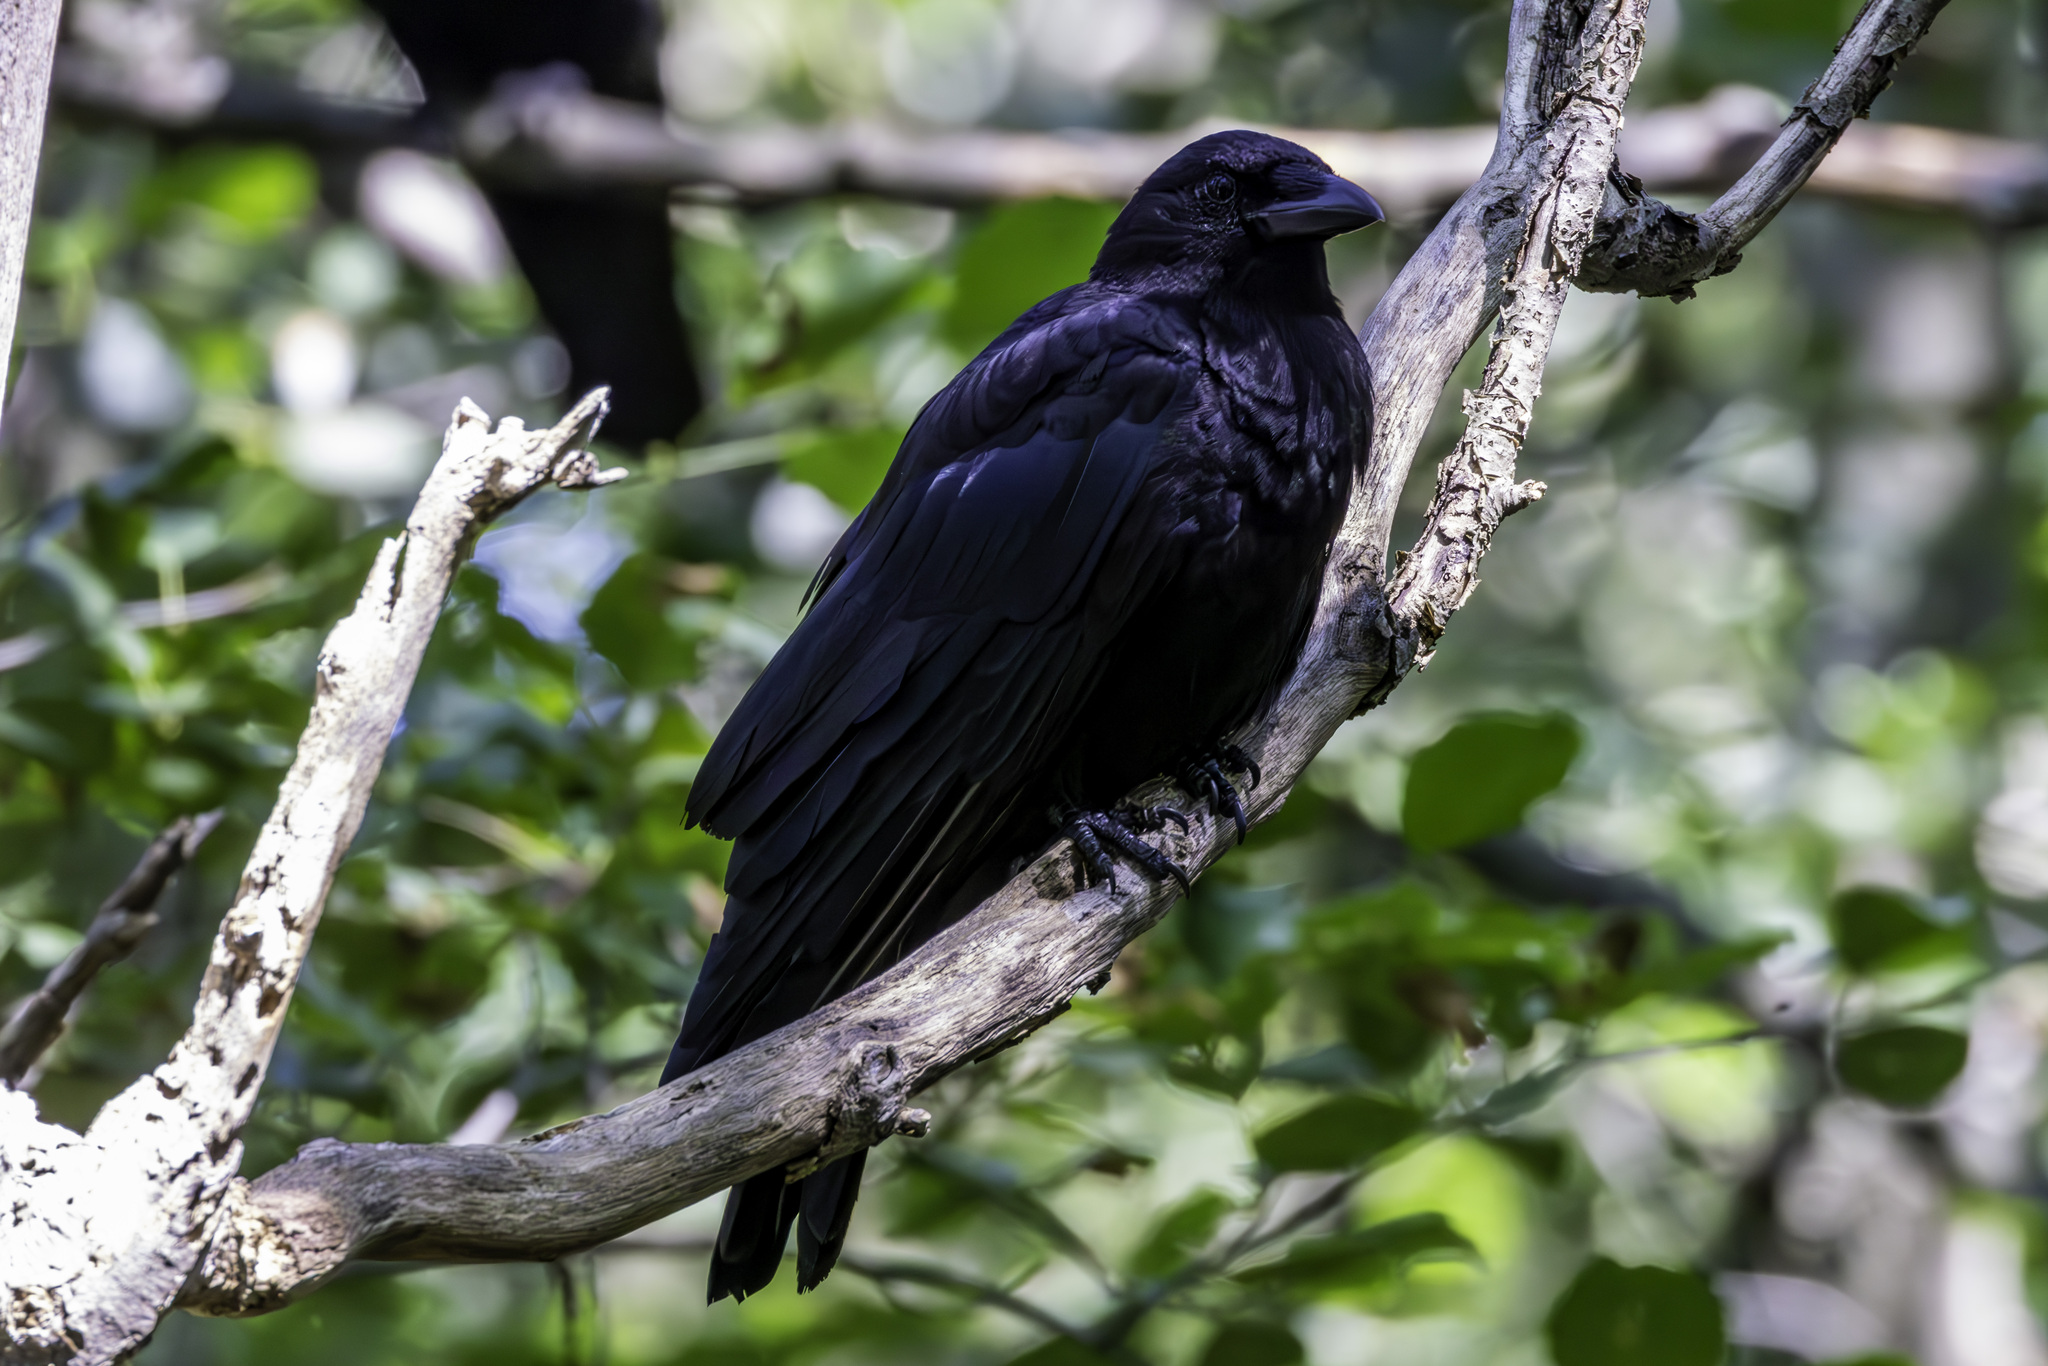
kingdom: Animalia
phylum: Chordata
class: Aves
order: Passeriformes
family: Corvidae
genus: Corvus
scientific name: Corvus brachyrhynchos
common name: American crow
